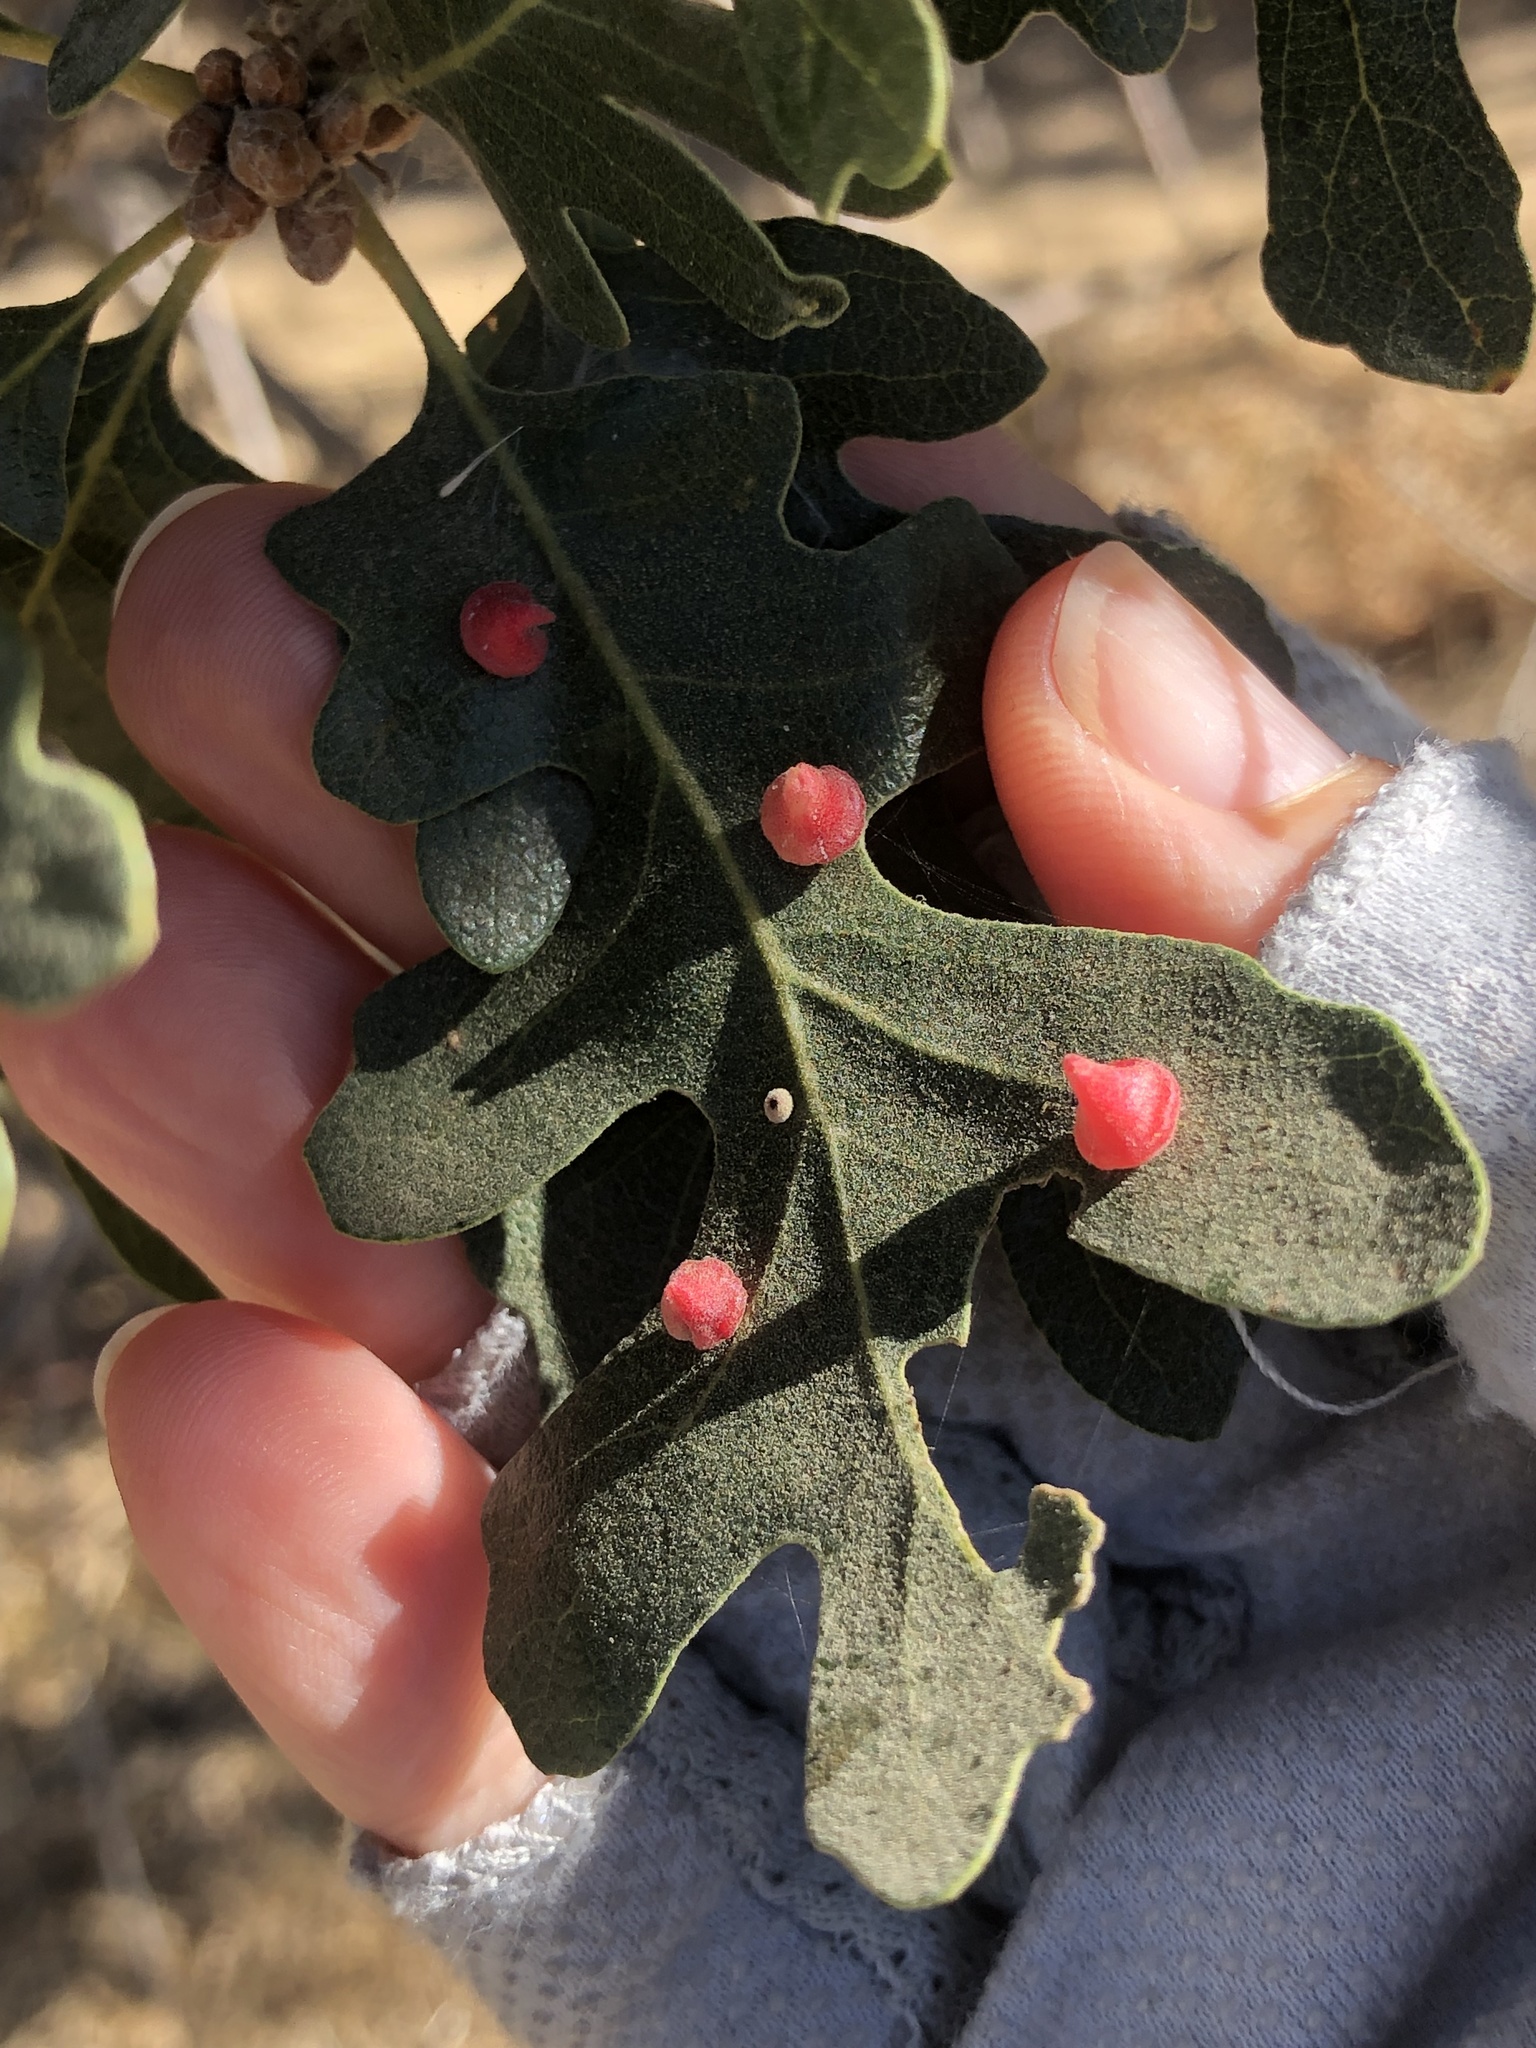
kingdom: Animalia
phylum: Arthropoda
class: Insecta
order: Hymenoptera
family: Cynipidae
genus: Andricus
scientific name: Andricus
